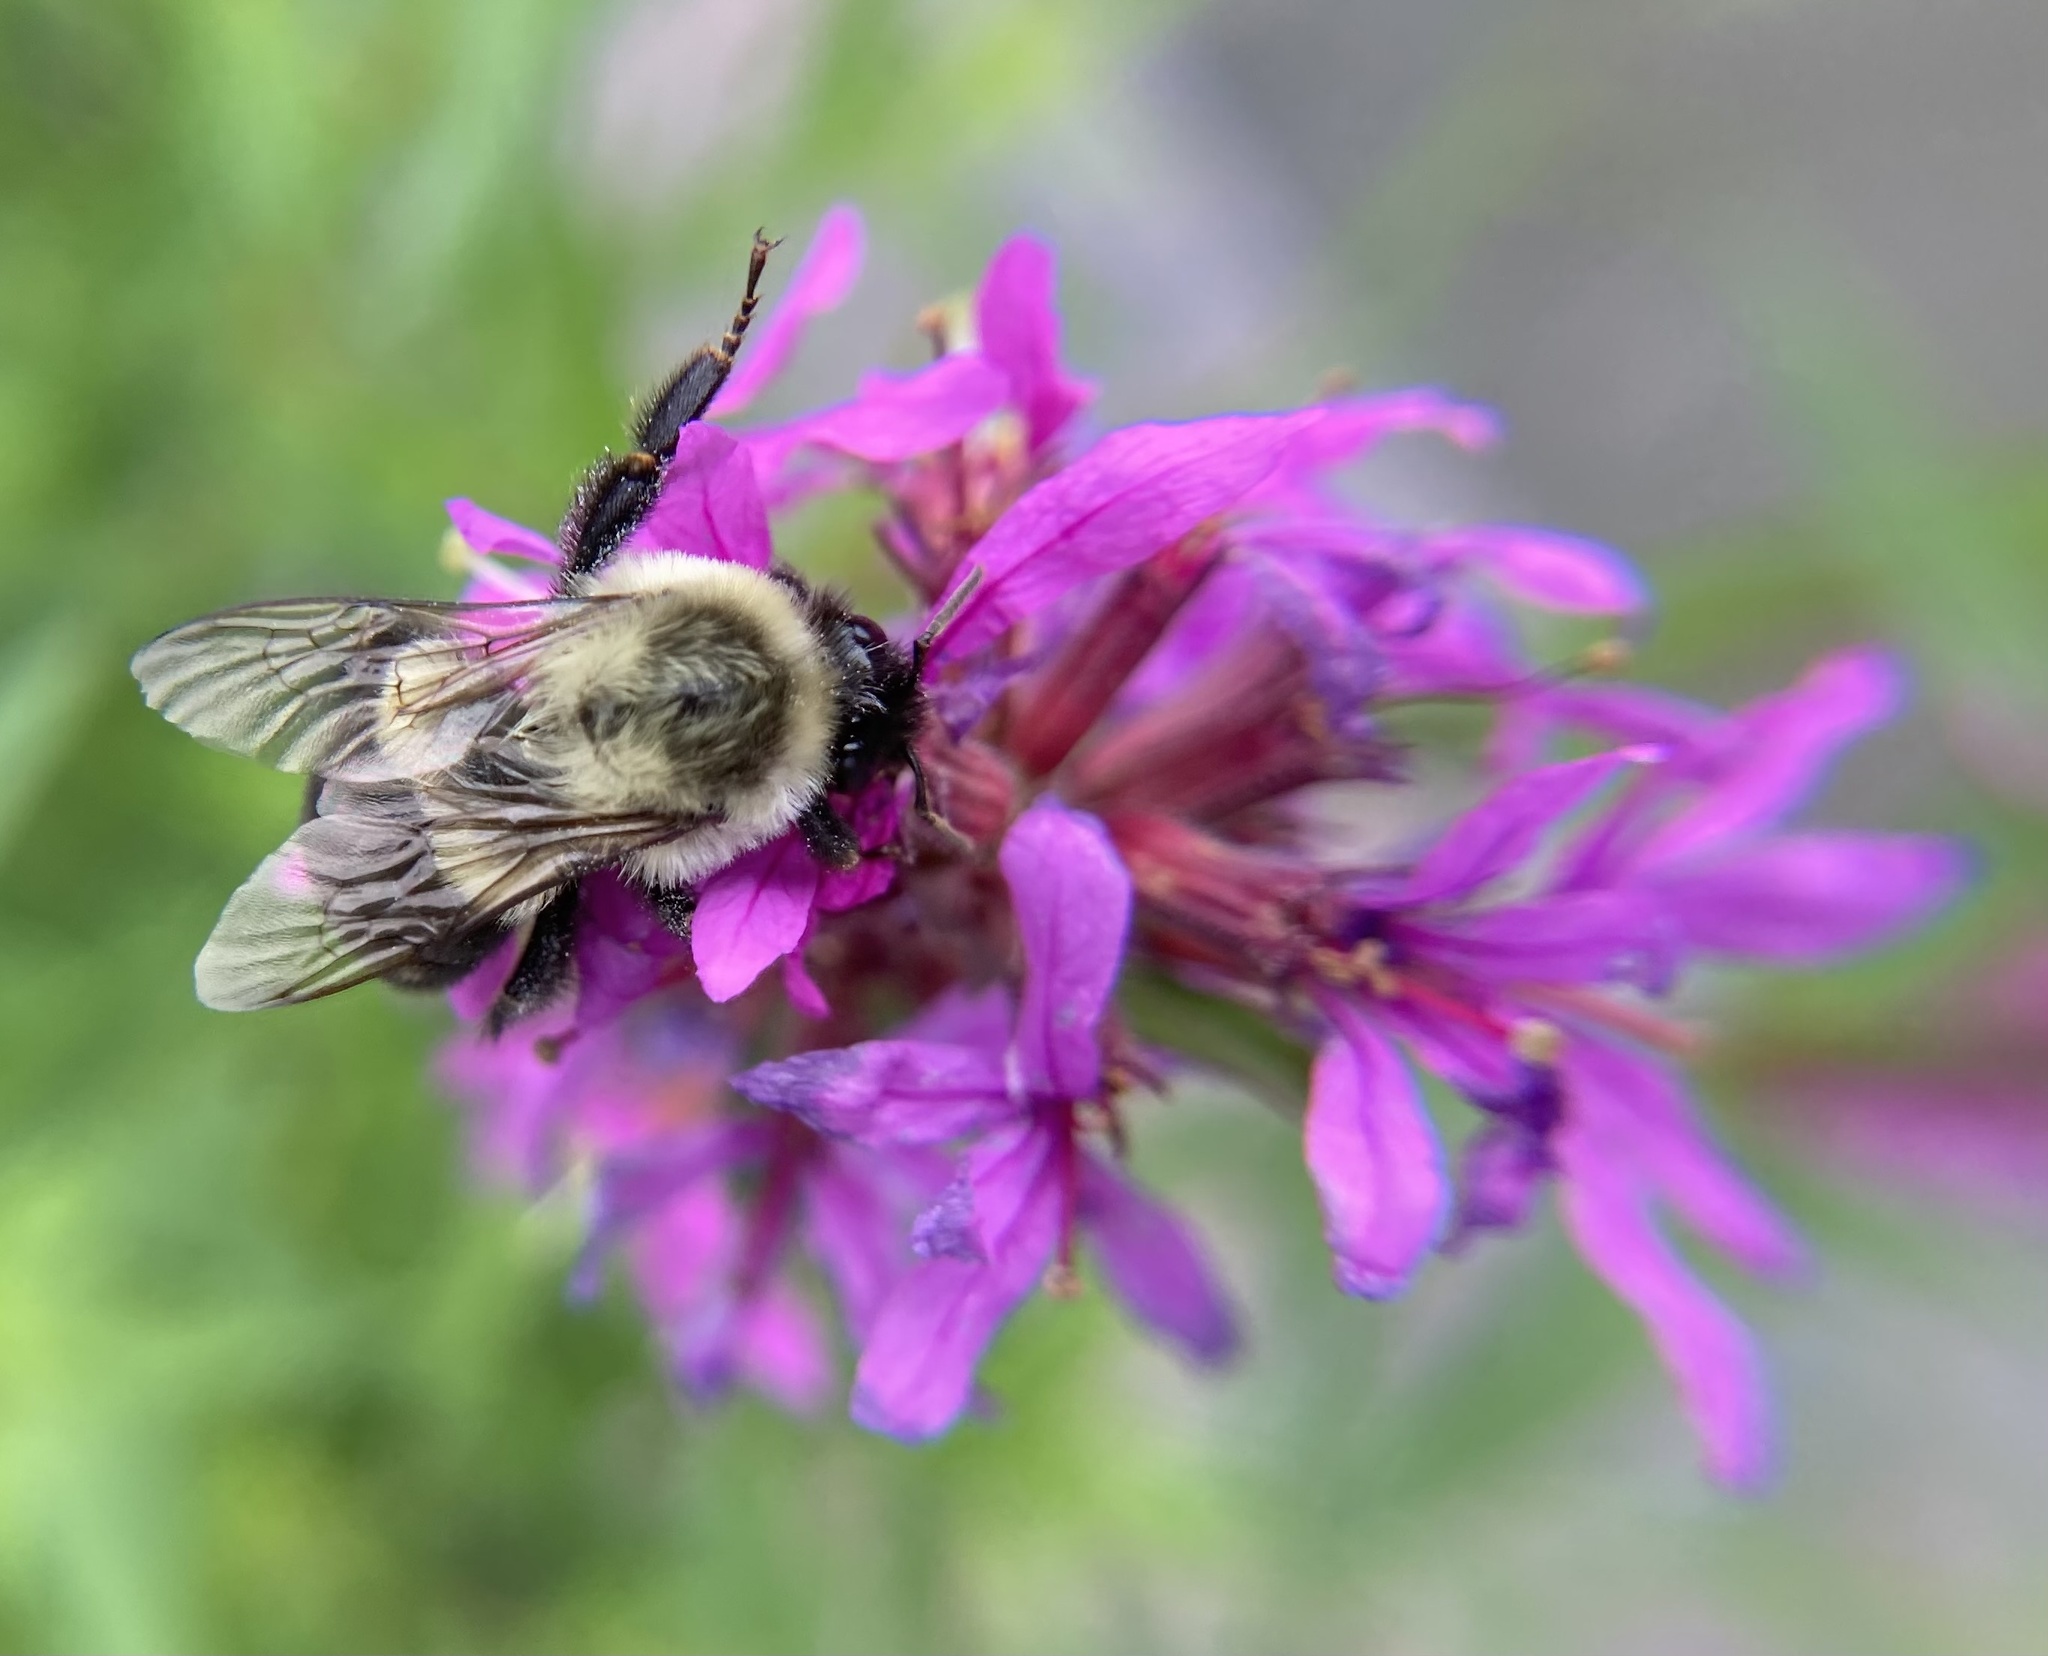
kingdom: Animalia
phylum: Arthropoda
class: Insecta
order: Hymenoptera
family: Apidae
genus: Bombus
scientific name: Bombus impatiens
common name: Common eastern bumble bee
